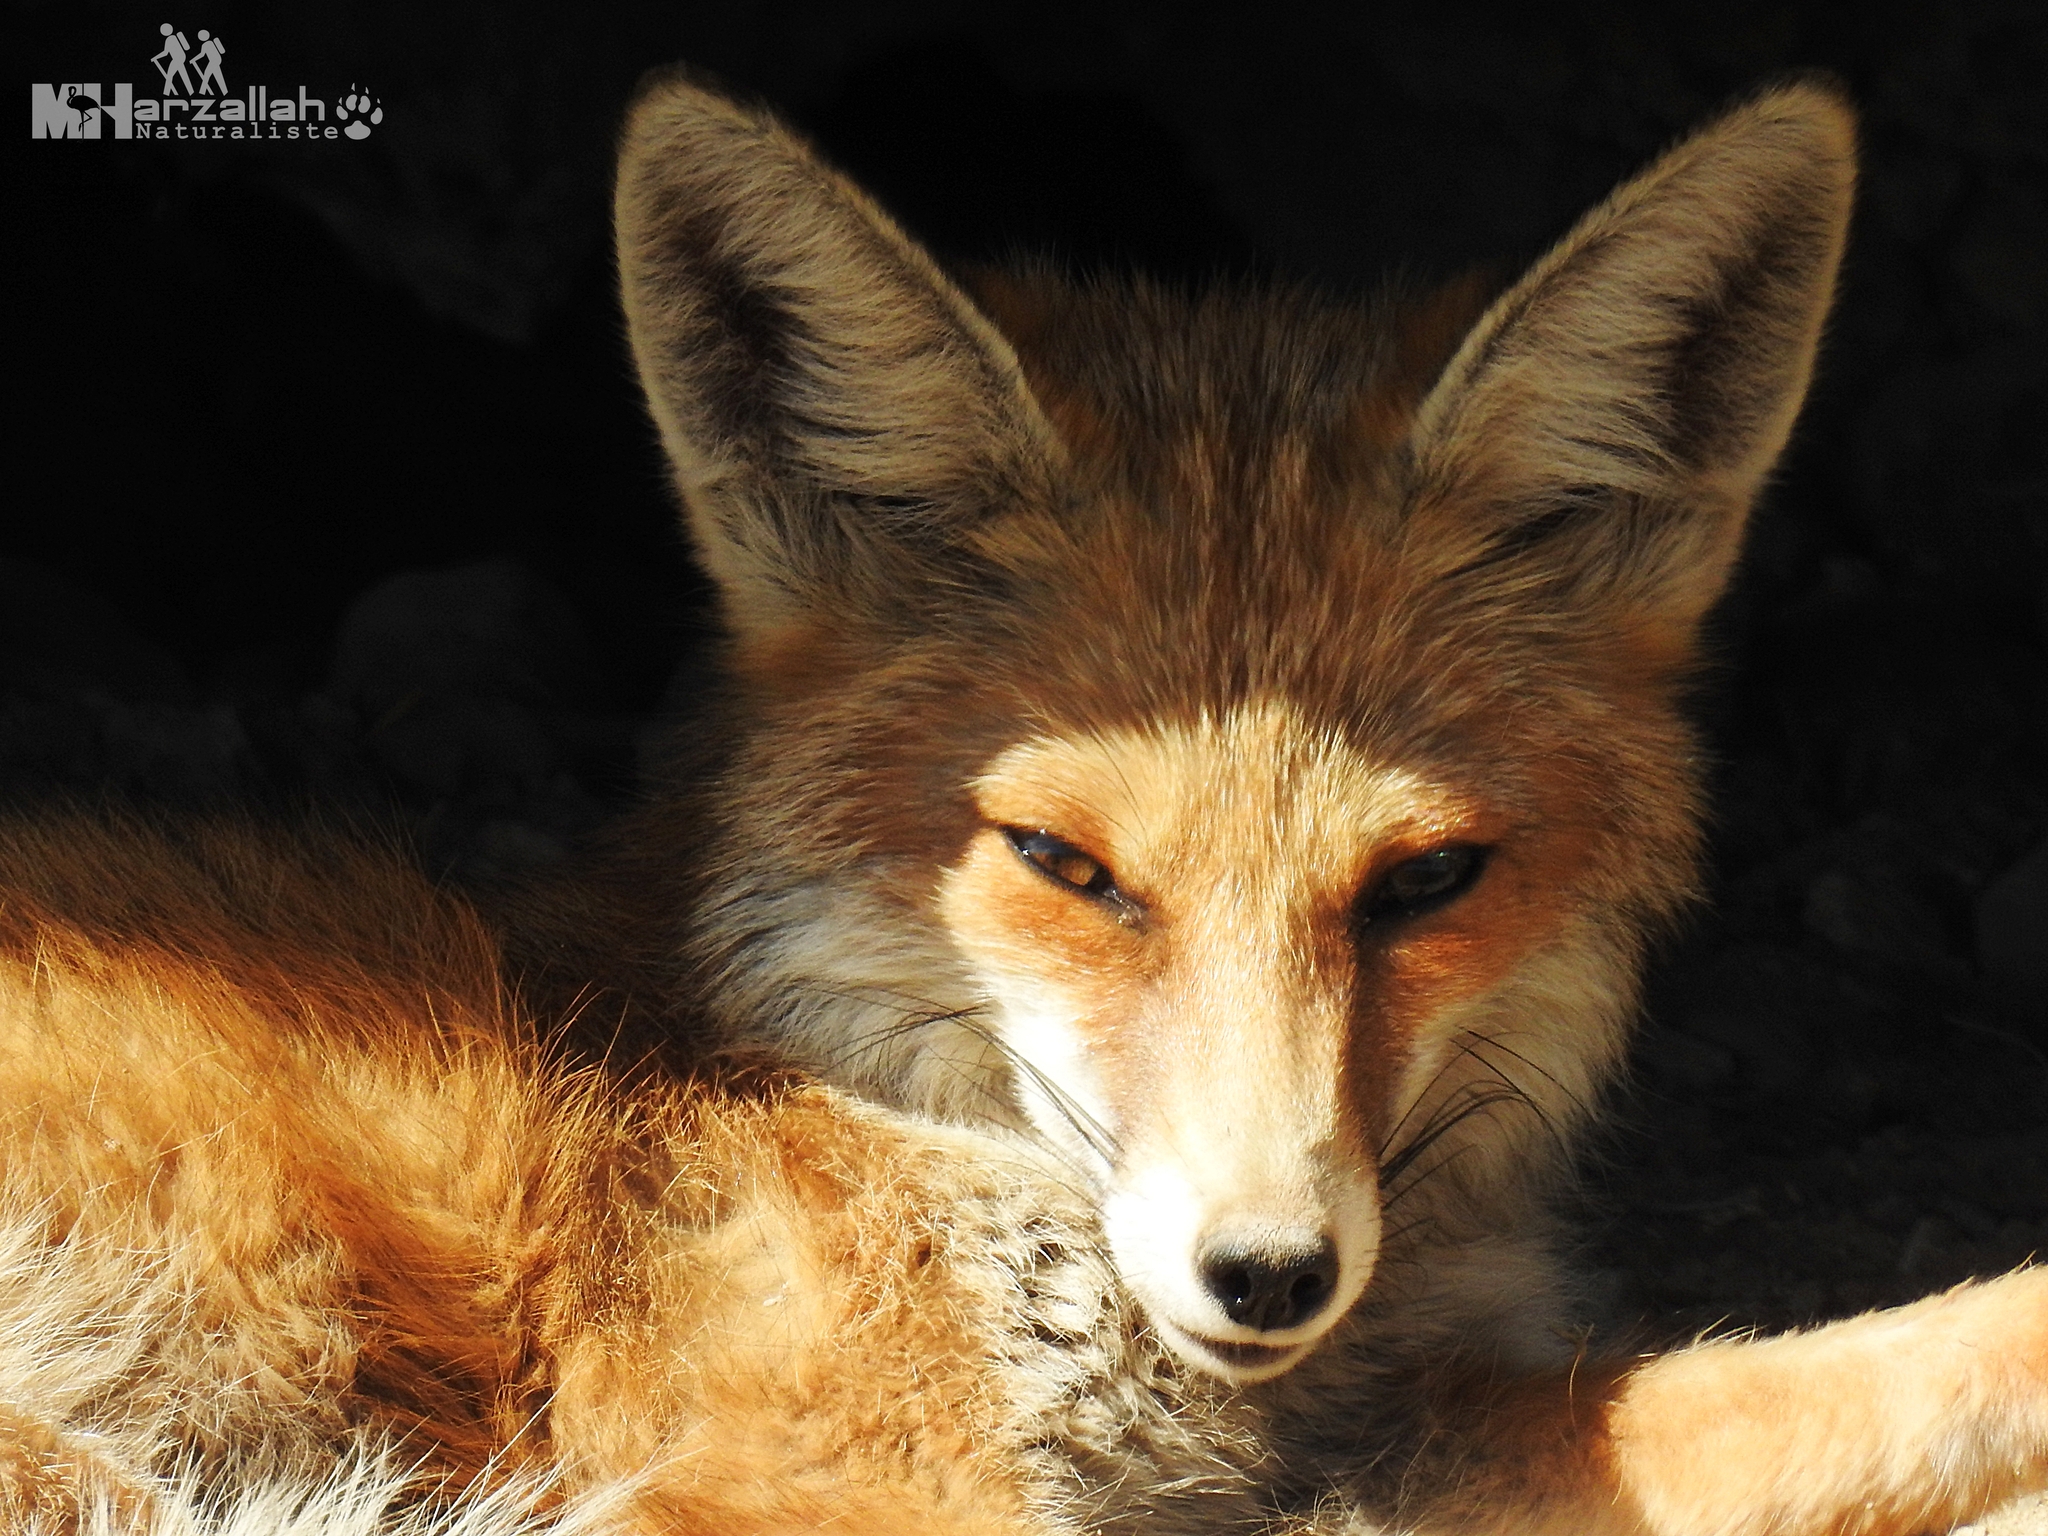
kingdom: Animalia
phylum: Chordata
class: Mammalia
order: Carnivora
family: Canidae
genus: Vulpes
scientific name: Vulpes vulpes
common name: Red fox
